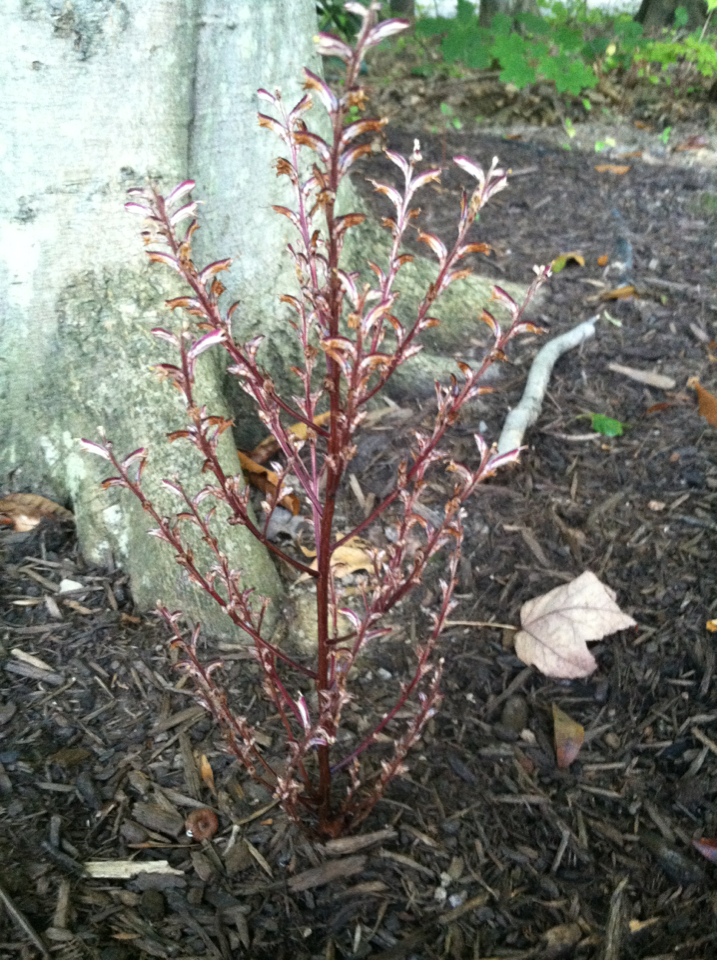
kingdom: Plantae
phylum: Tracheophyta
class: Magnoliopsida
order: Lamiales
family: Orobanchaceae
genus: Epifagus
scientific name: Epifagus virginiana
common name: Beechdrops
